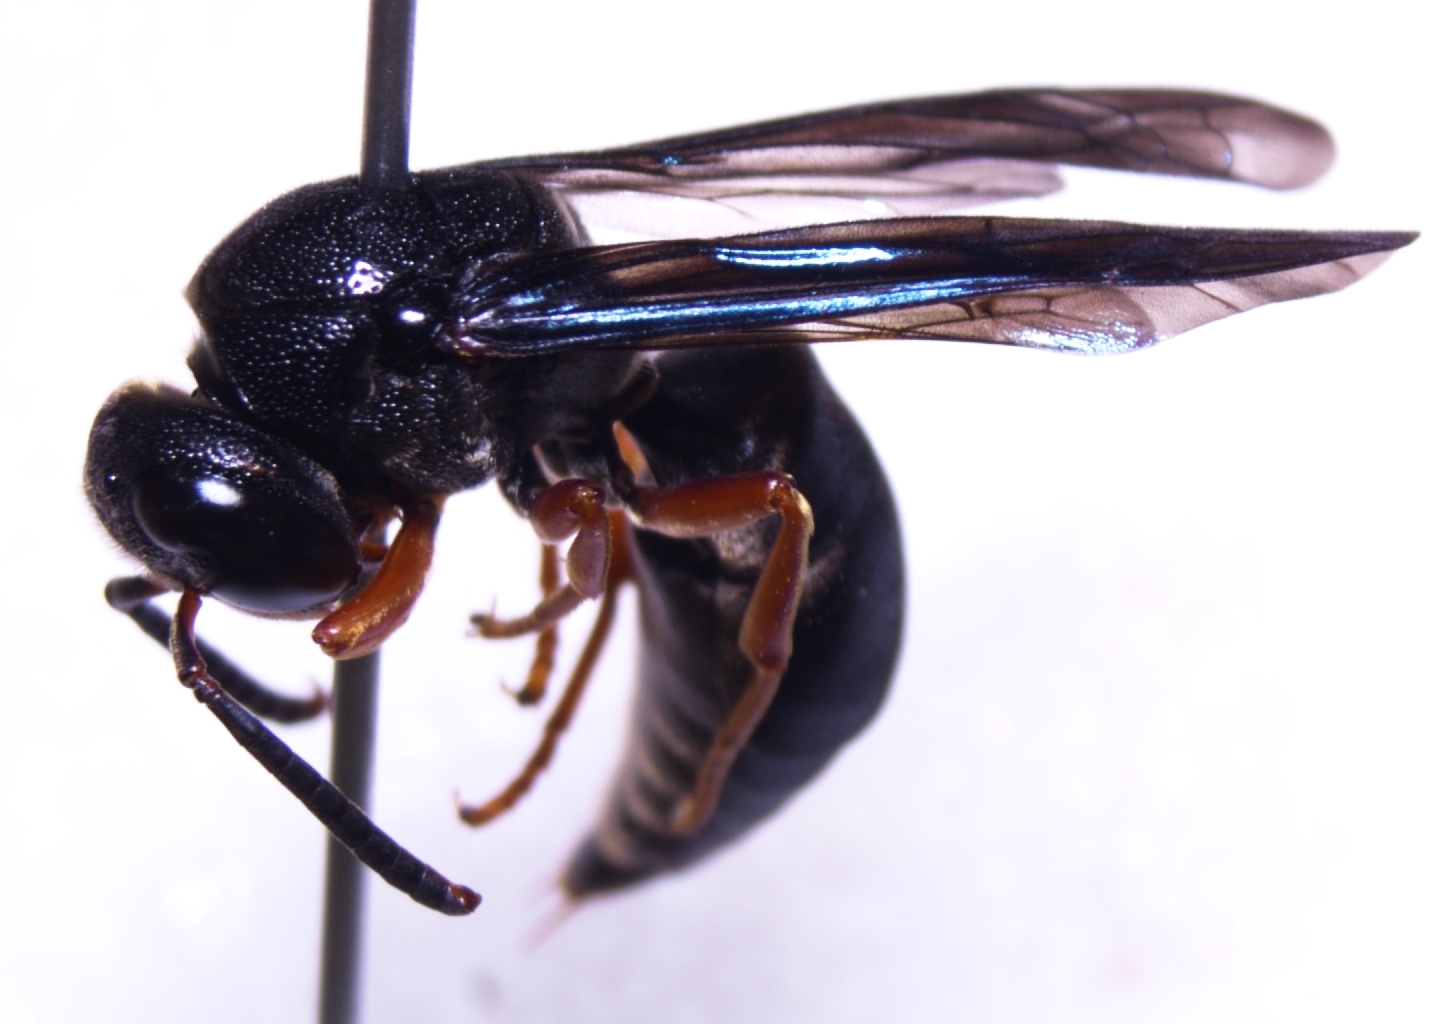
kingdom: Animalia
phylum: Arthropoda
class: Insecta
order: Hymenoptera
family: Eumenidae
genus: Anterhynchium
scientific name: Anterhynchium rufipes
